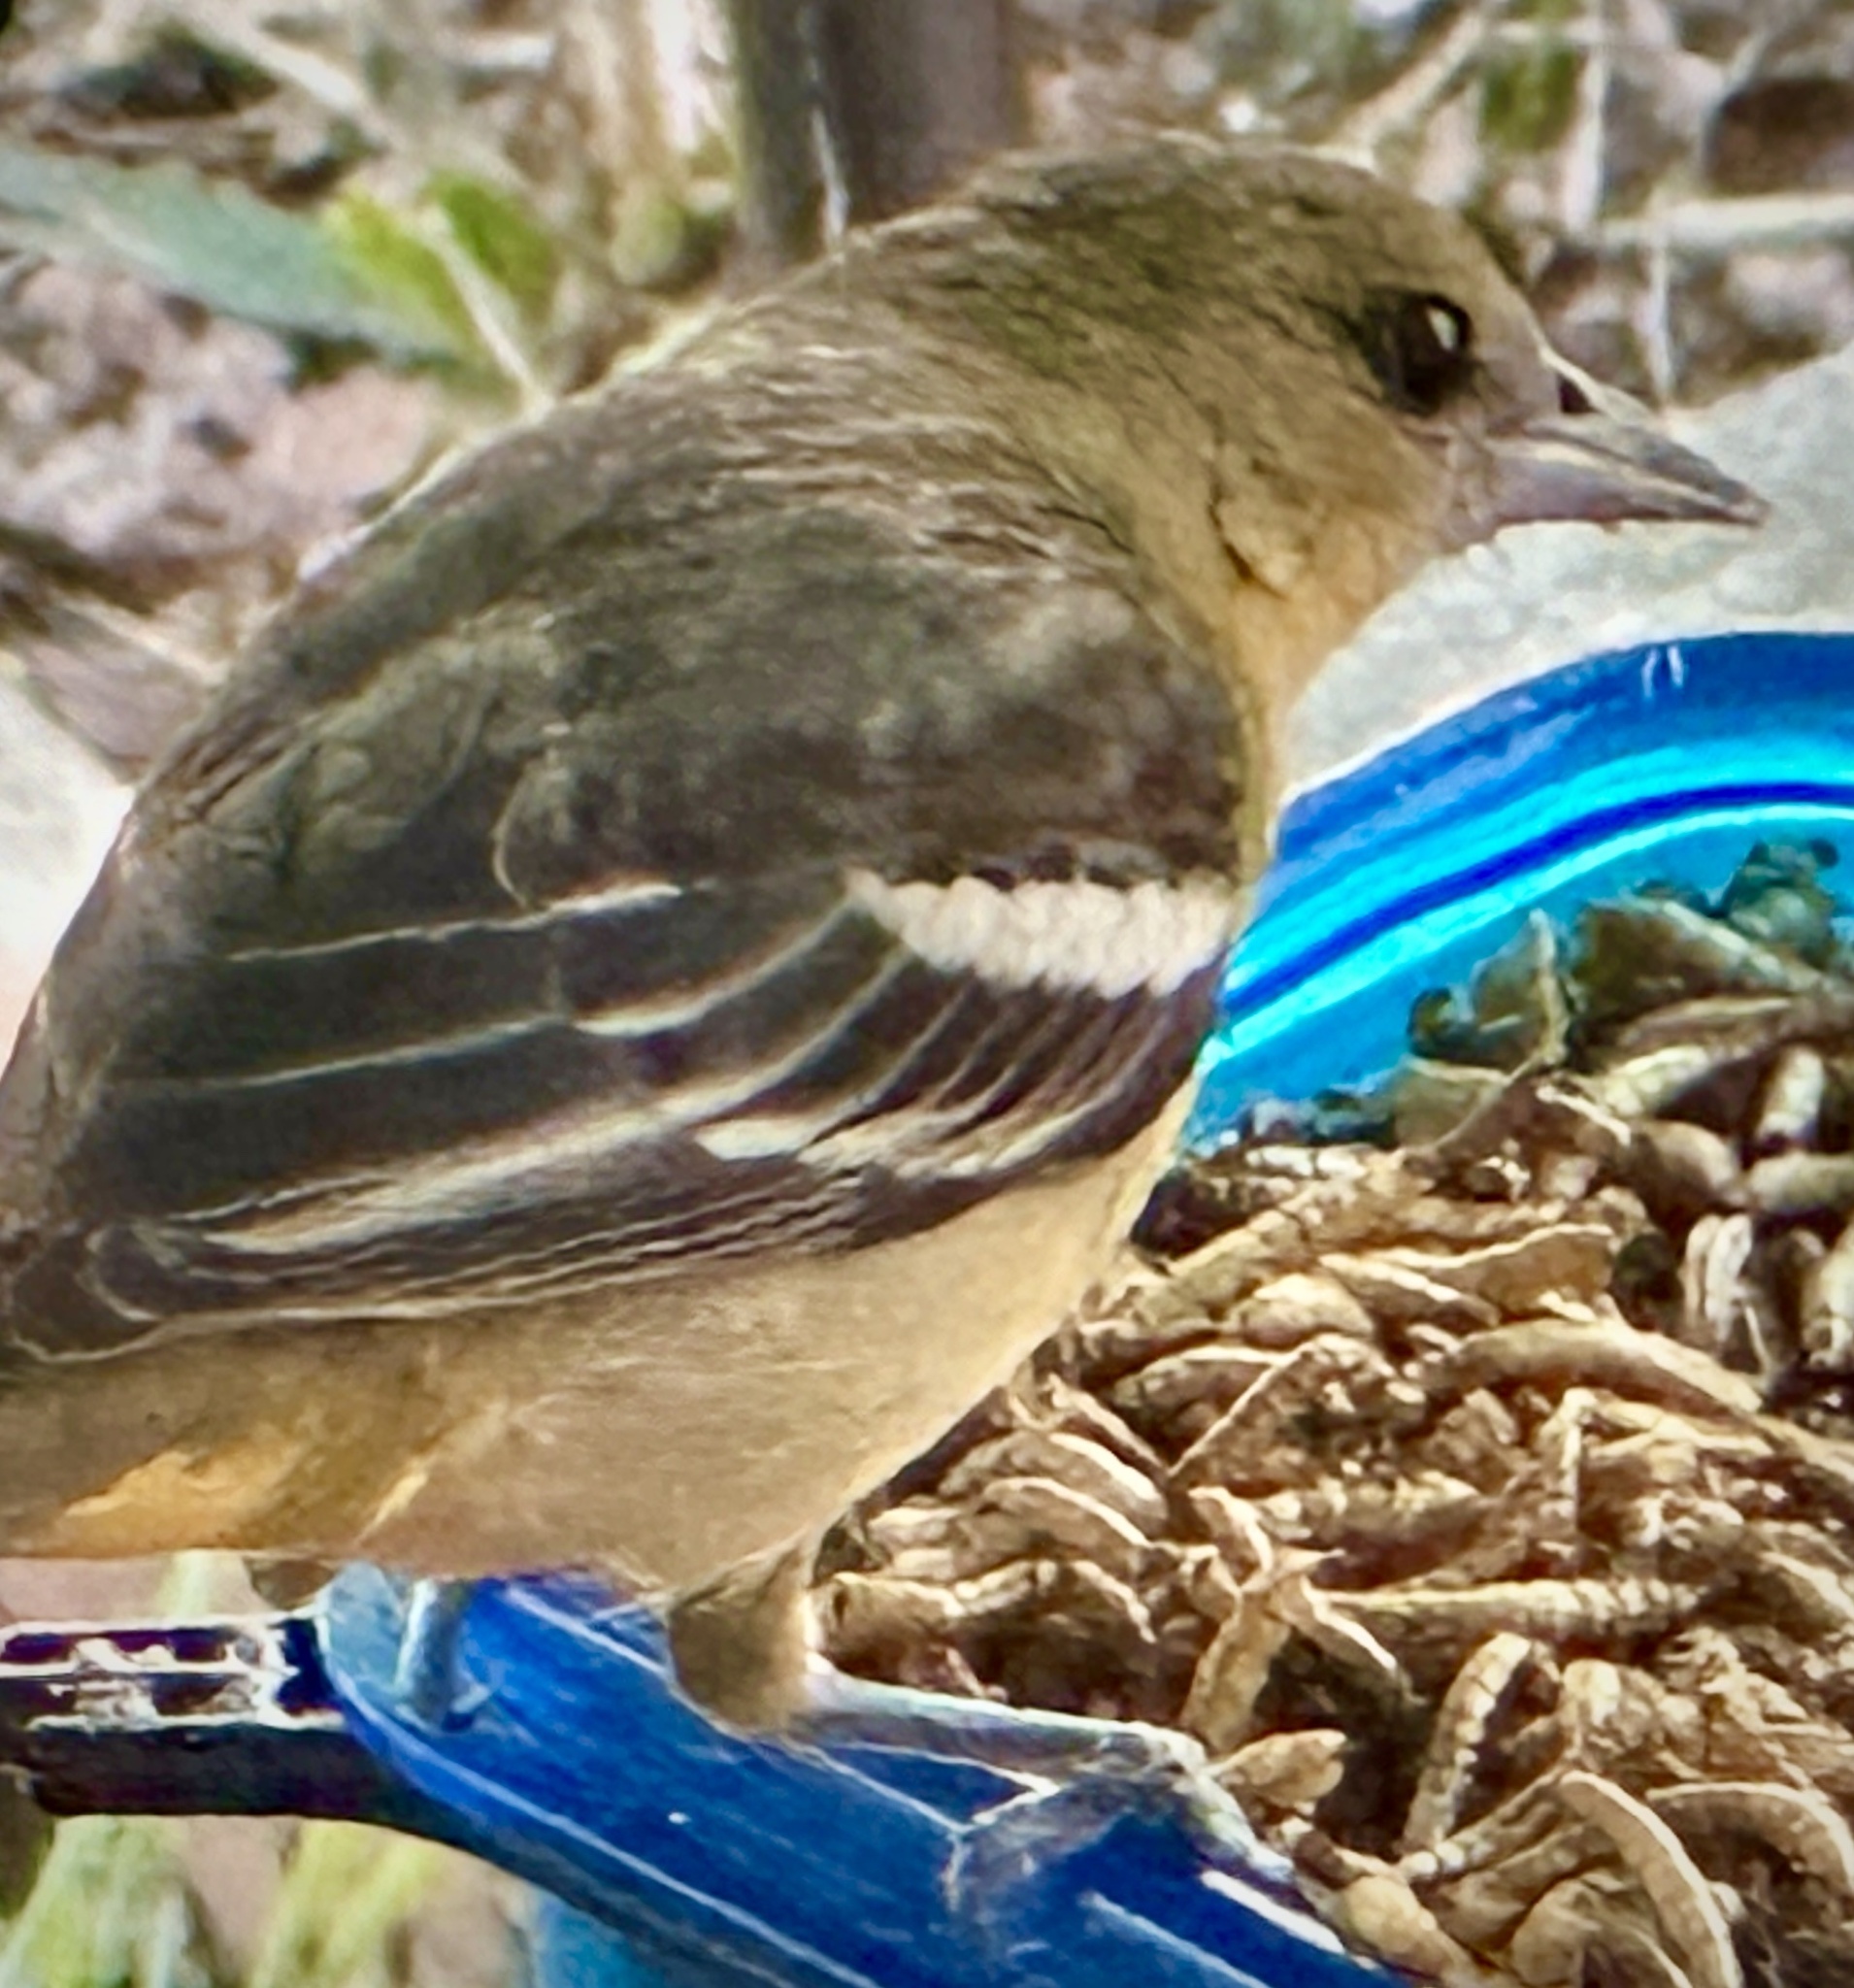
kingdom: Animalia
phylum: Chordata
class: Aves
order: Passeriformes
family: Icteridae
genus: Icterus
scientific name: Icterus galbula
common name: Baltimore oriole
